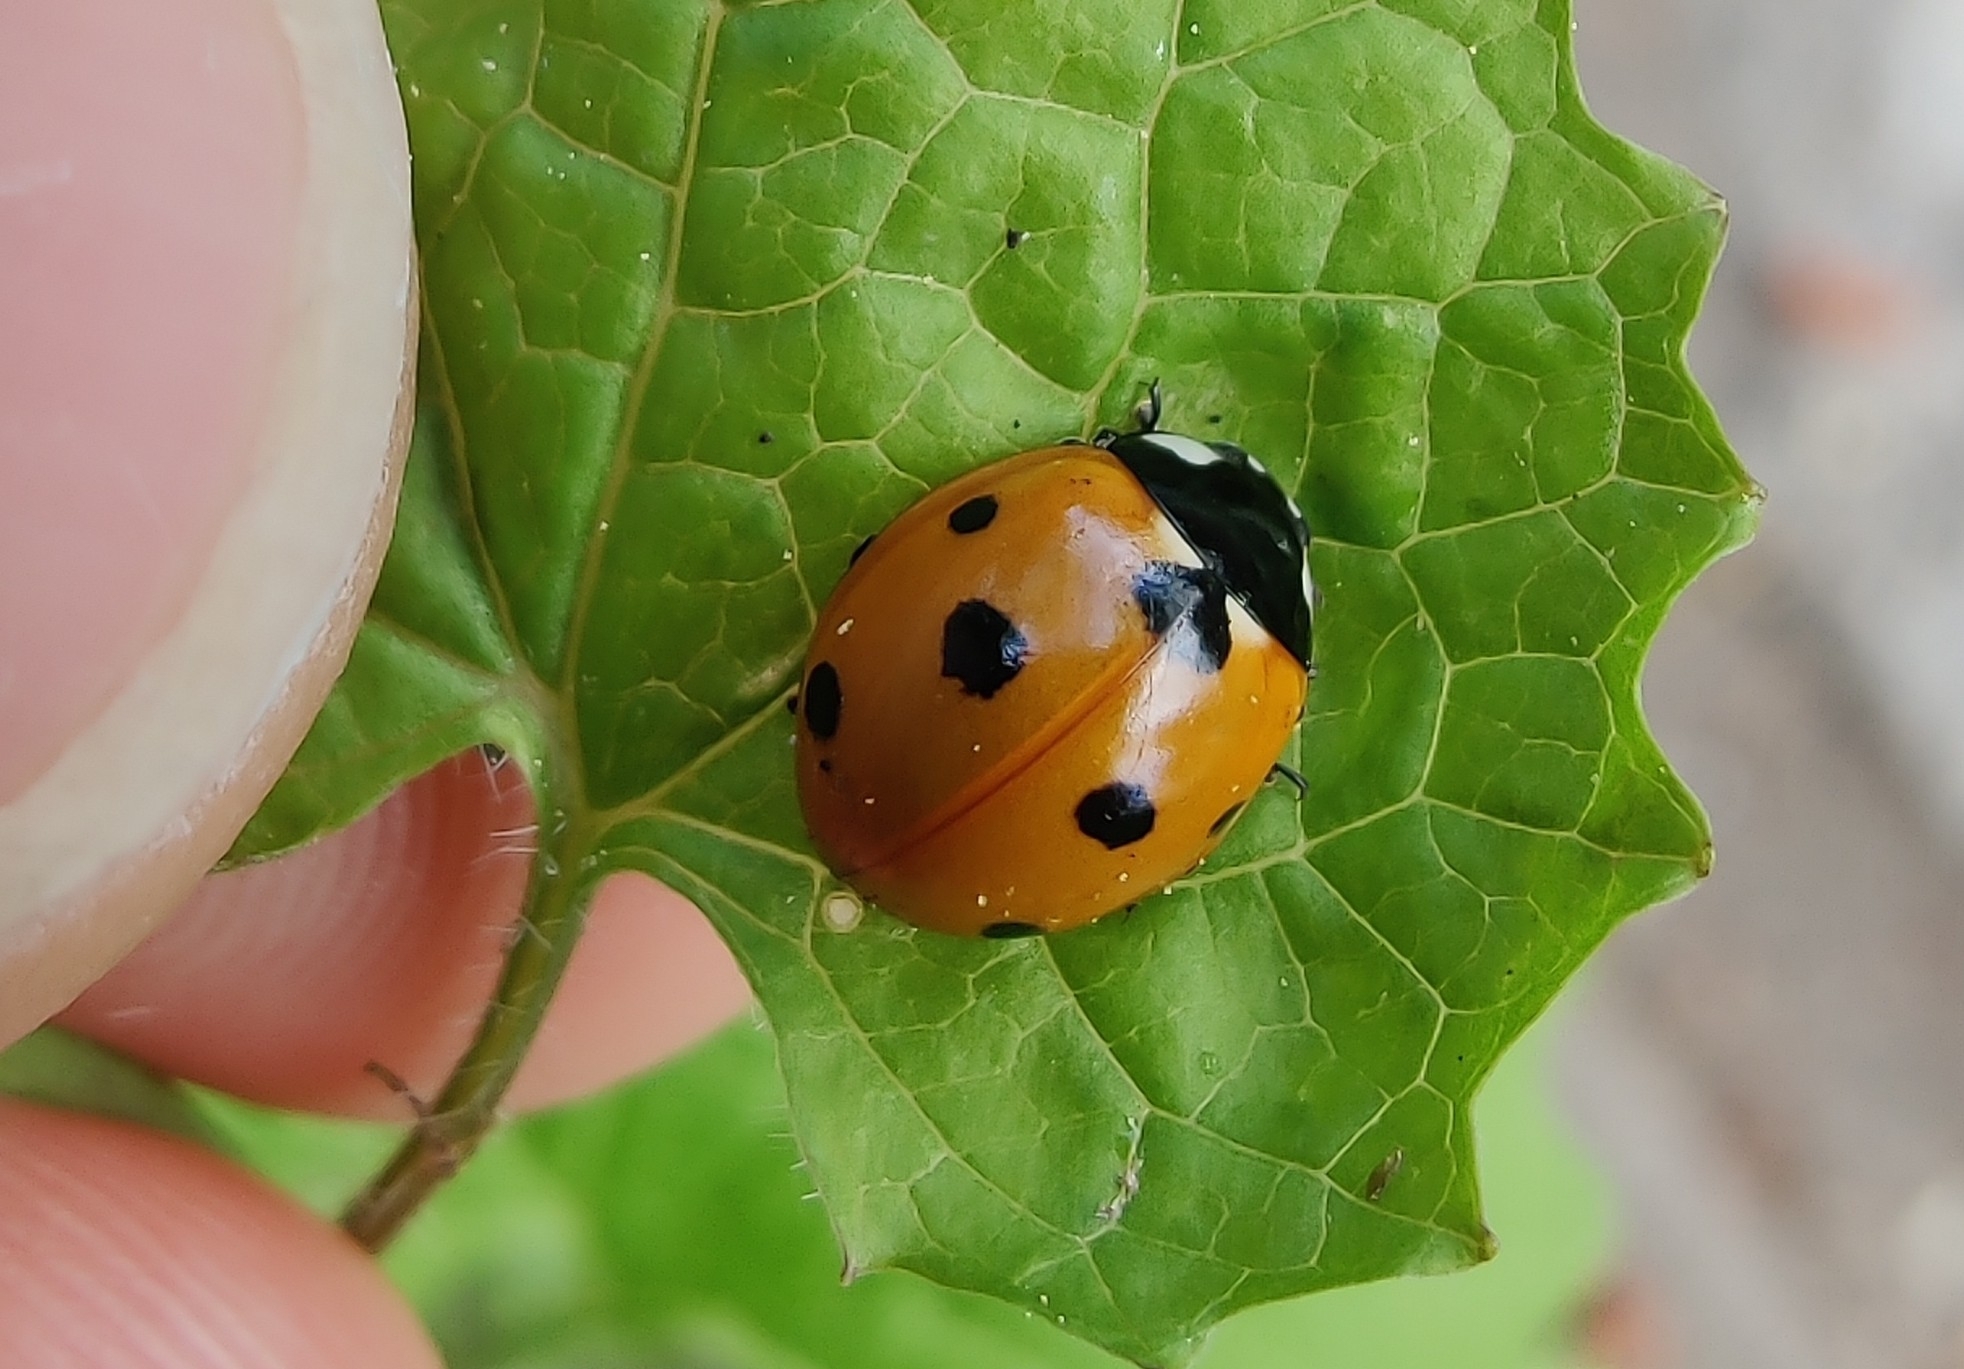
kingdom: Animalia
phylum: Arthropoda
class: Insecta
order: Coleoptera
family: Coccinellidae
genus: Coccinella
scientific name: Coccinella septempunctata
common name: Sevenspotted lady beetle
